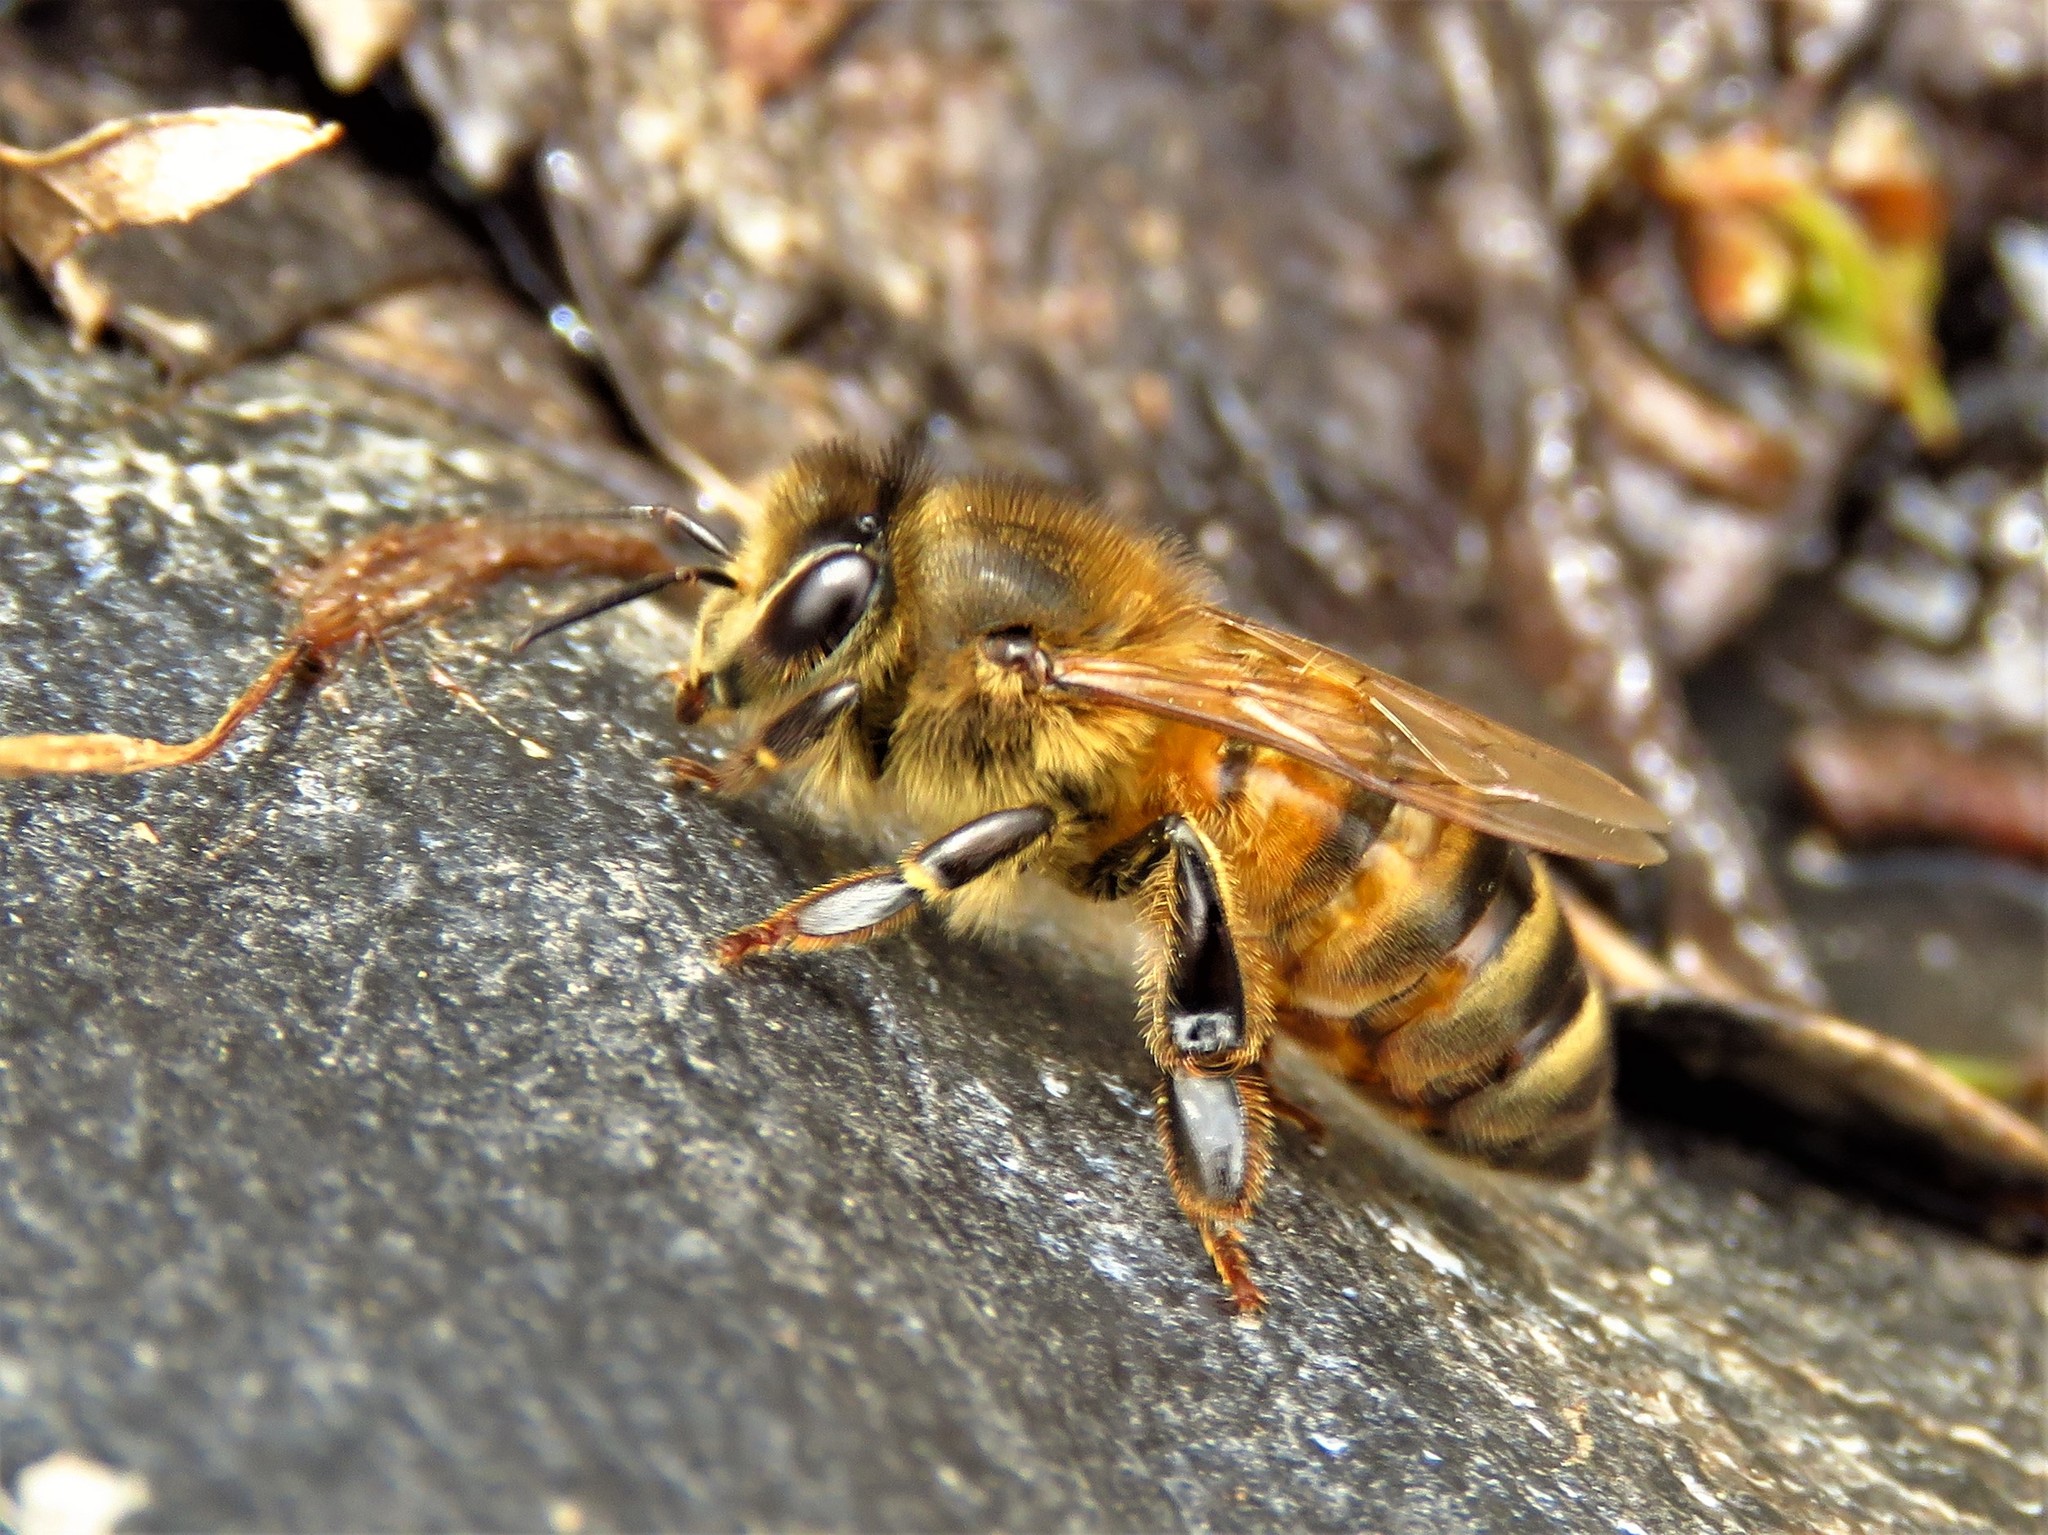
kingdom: Animalia
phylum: Arthropoda
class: Insecta
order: Hymenoptera
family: Apidae
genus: Apis
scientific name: Apis mellifera
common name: Honey bee
